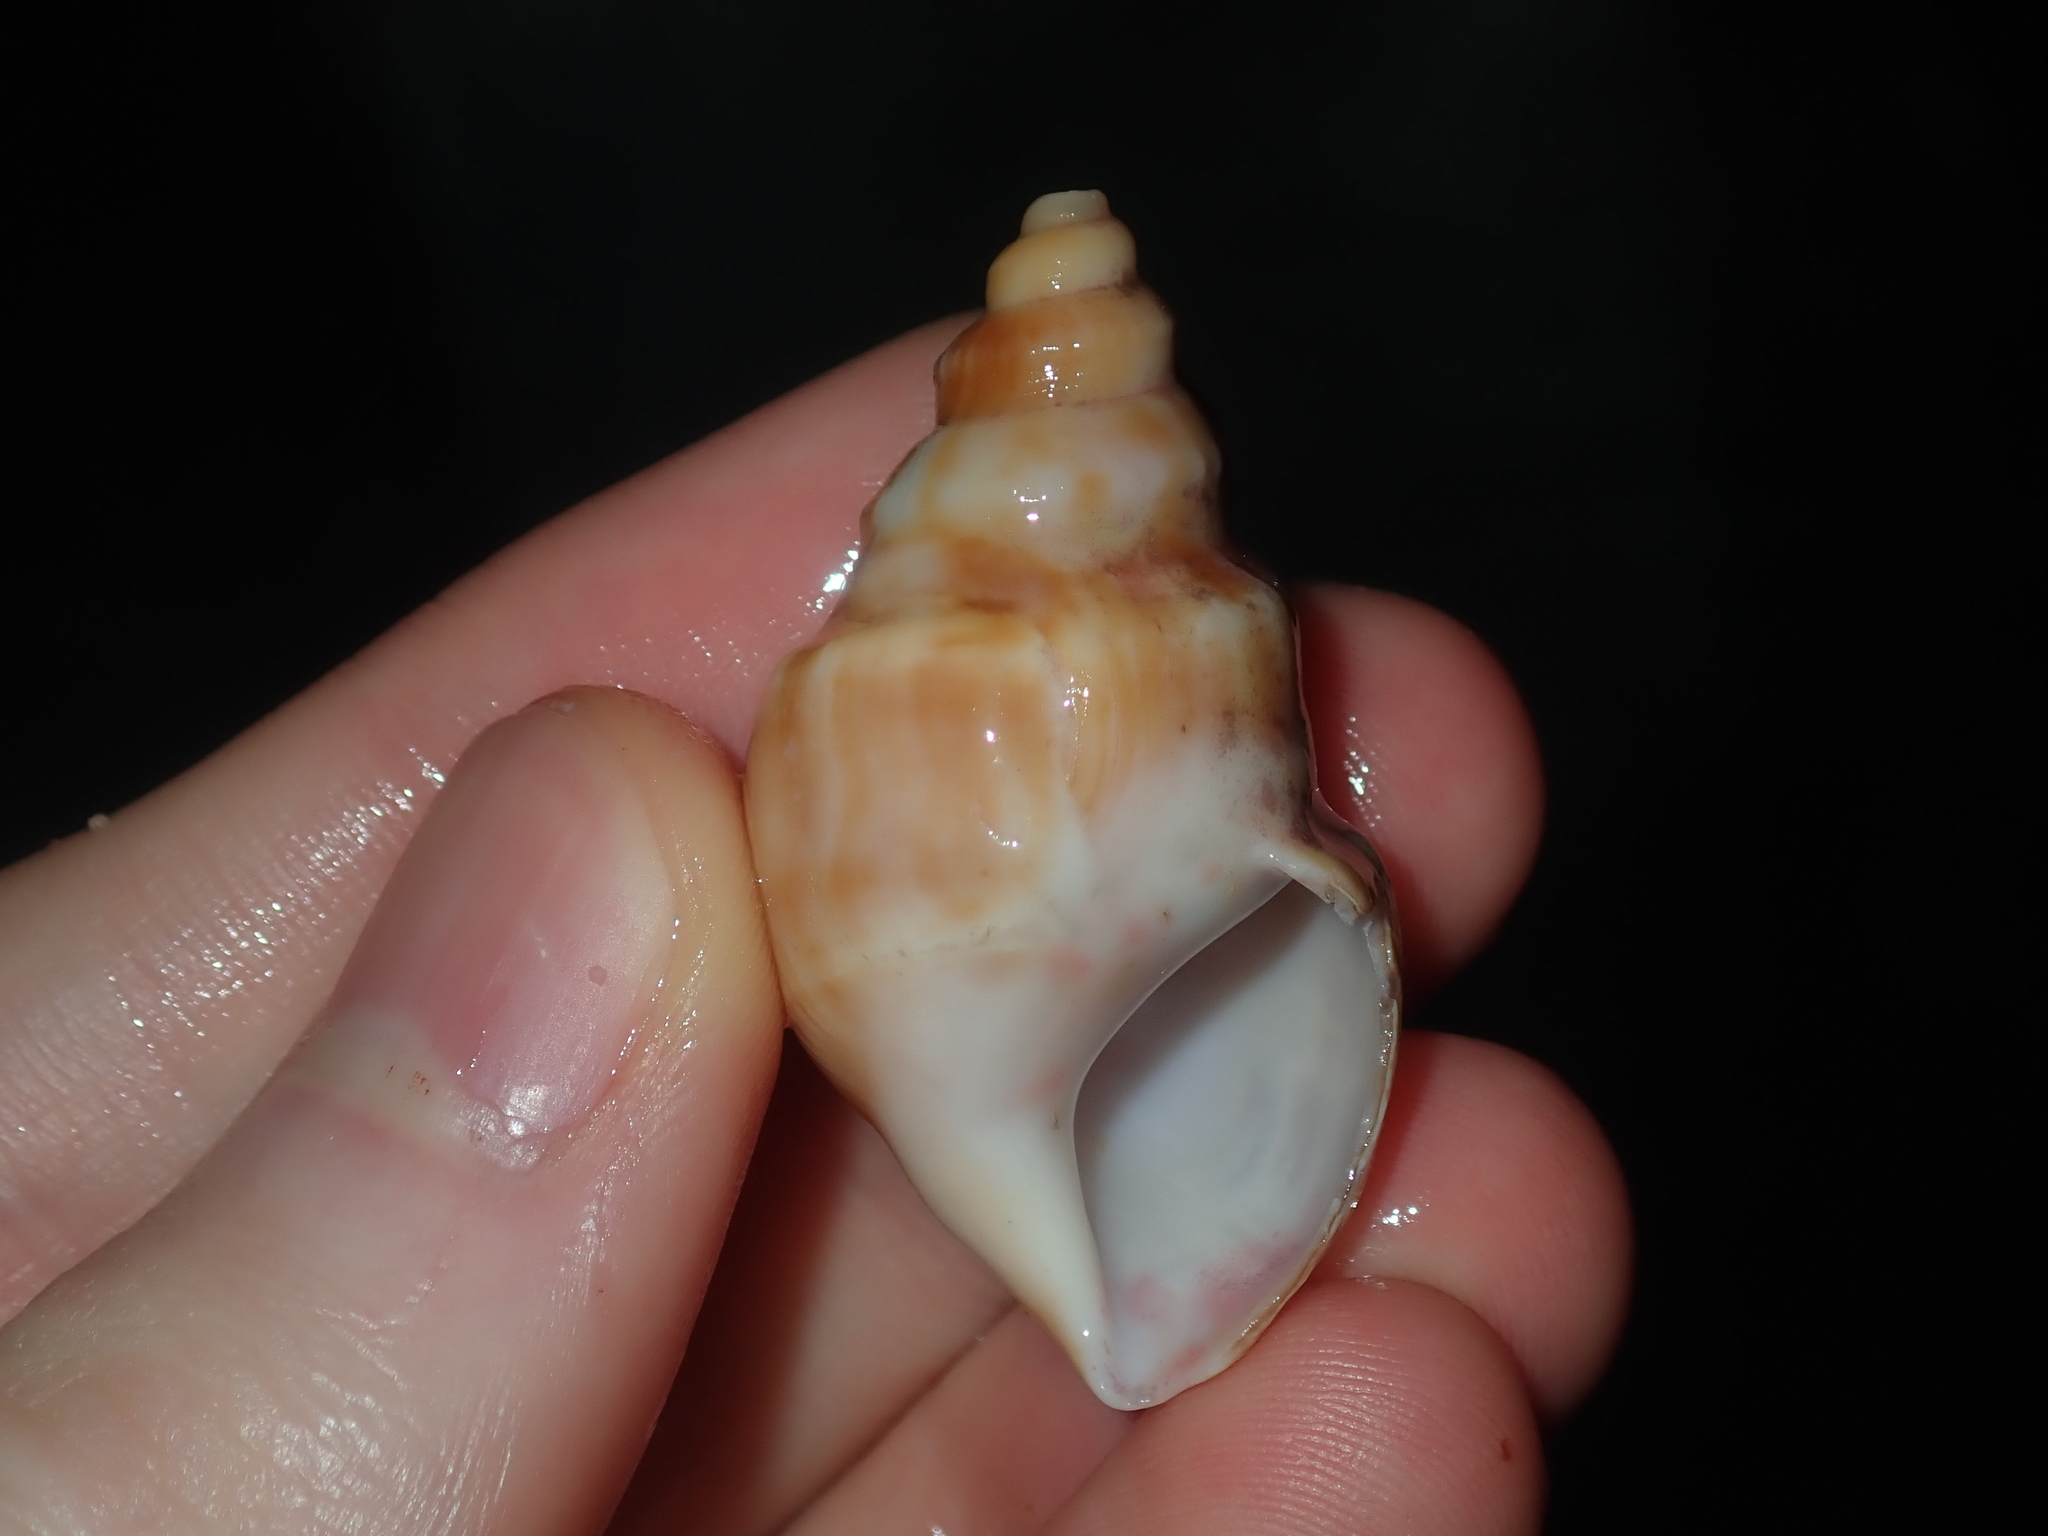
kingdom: Animalia
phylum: Mollusca
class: Gastropoda
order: Littorinimorpha
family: Struthiolariidae
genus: Tylospira
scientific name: Tylospira scutulata
